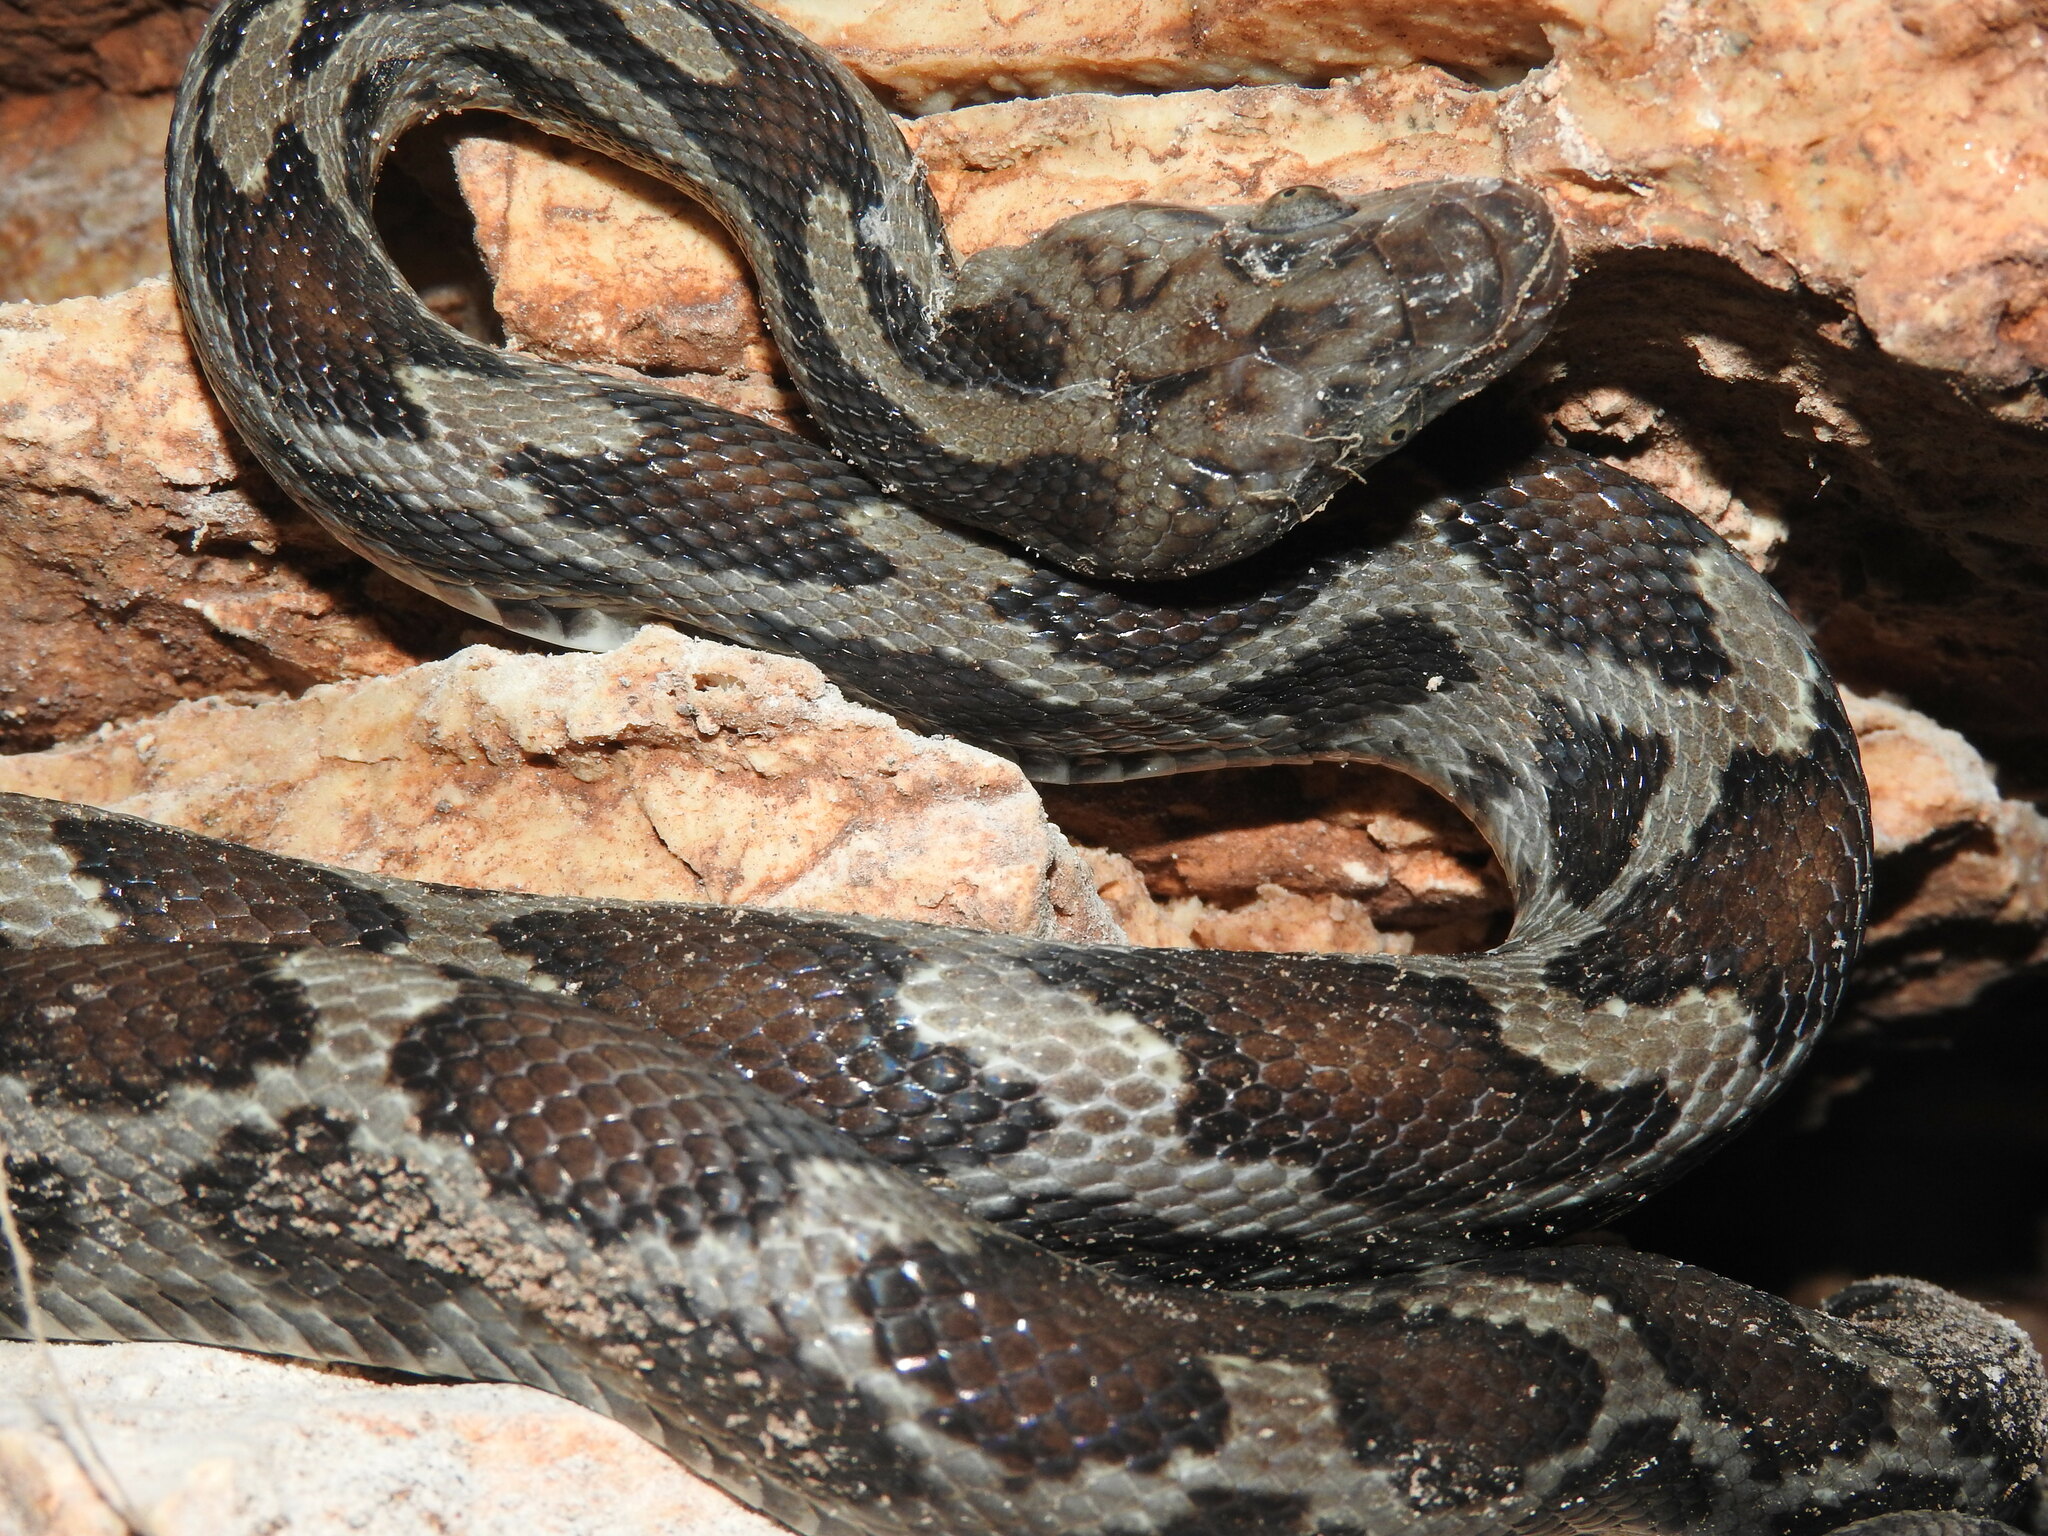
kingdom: Animalia
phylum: Chordata
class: Squamata
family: Colubridae
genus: Pseudelaphe
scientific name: Pseudelaphe phaescens
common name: Yucatan rat snake
